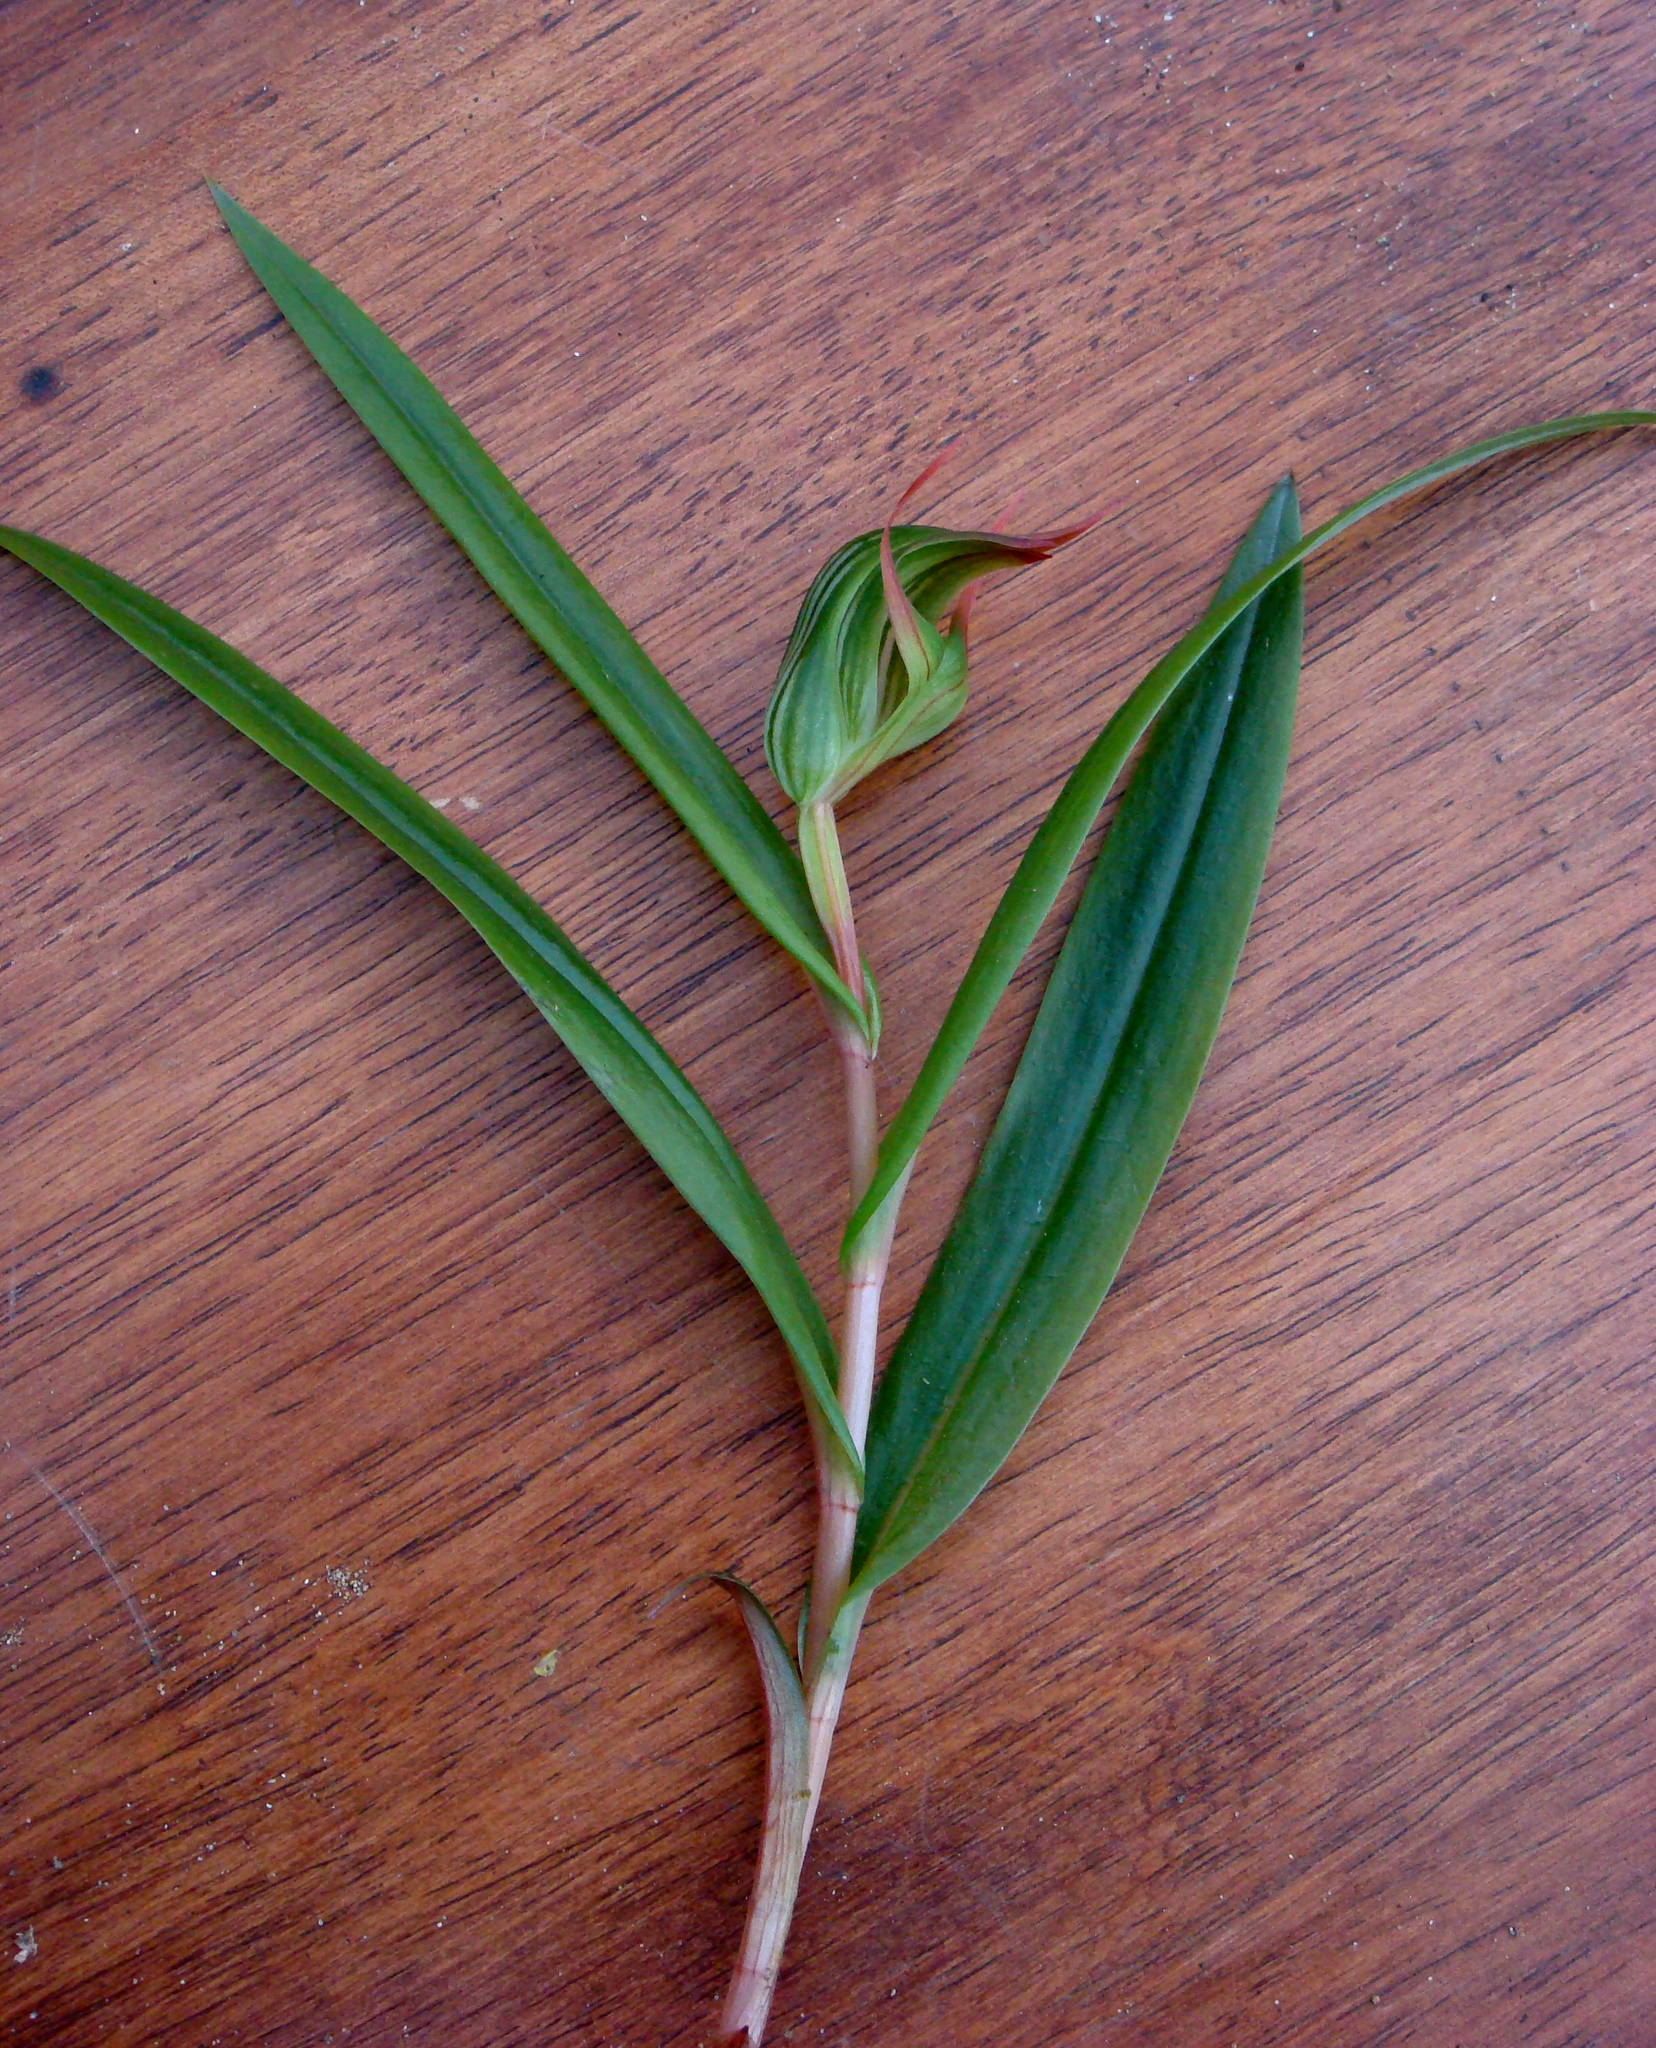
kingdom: Plantae
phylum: Tracheophyta
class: Liliopsida
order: Asparagales
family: Orchidaceae
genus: Pterostylis
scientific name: Pterostylis auriculata
